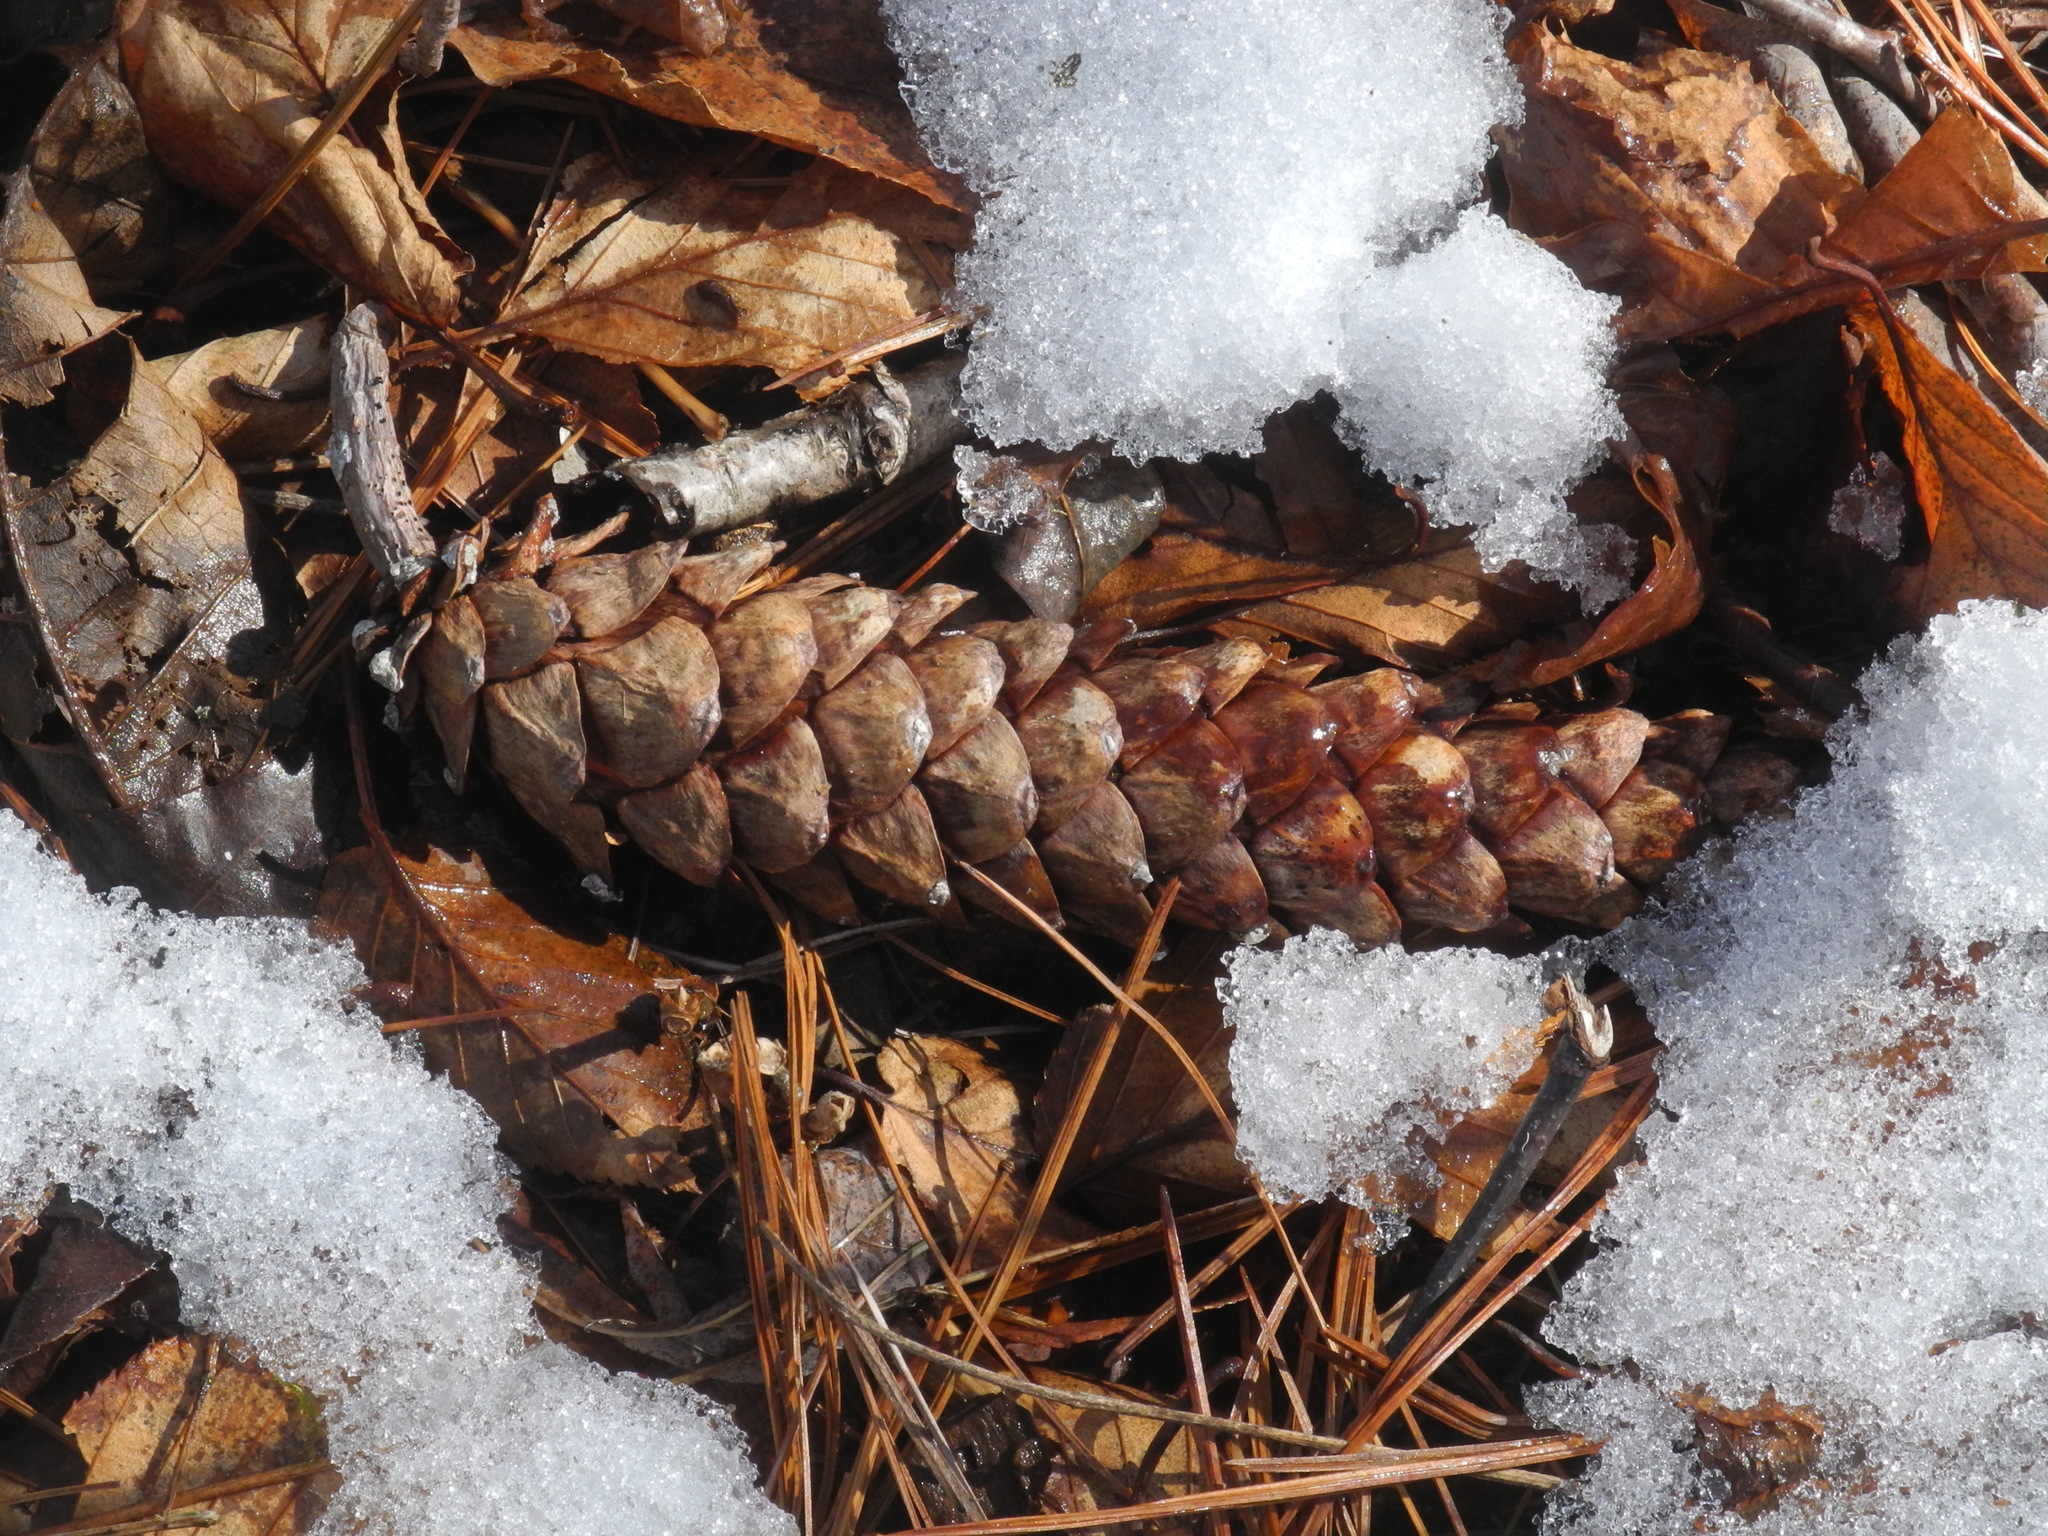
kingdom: Plantae
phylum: Tracheophyta
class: Pinopsida
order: Pinales
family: Pinaceae
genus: Pinus
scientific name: Pinus strobus
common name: Weymouth pine
